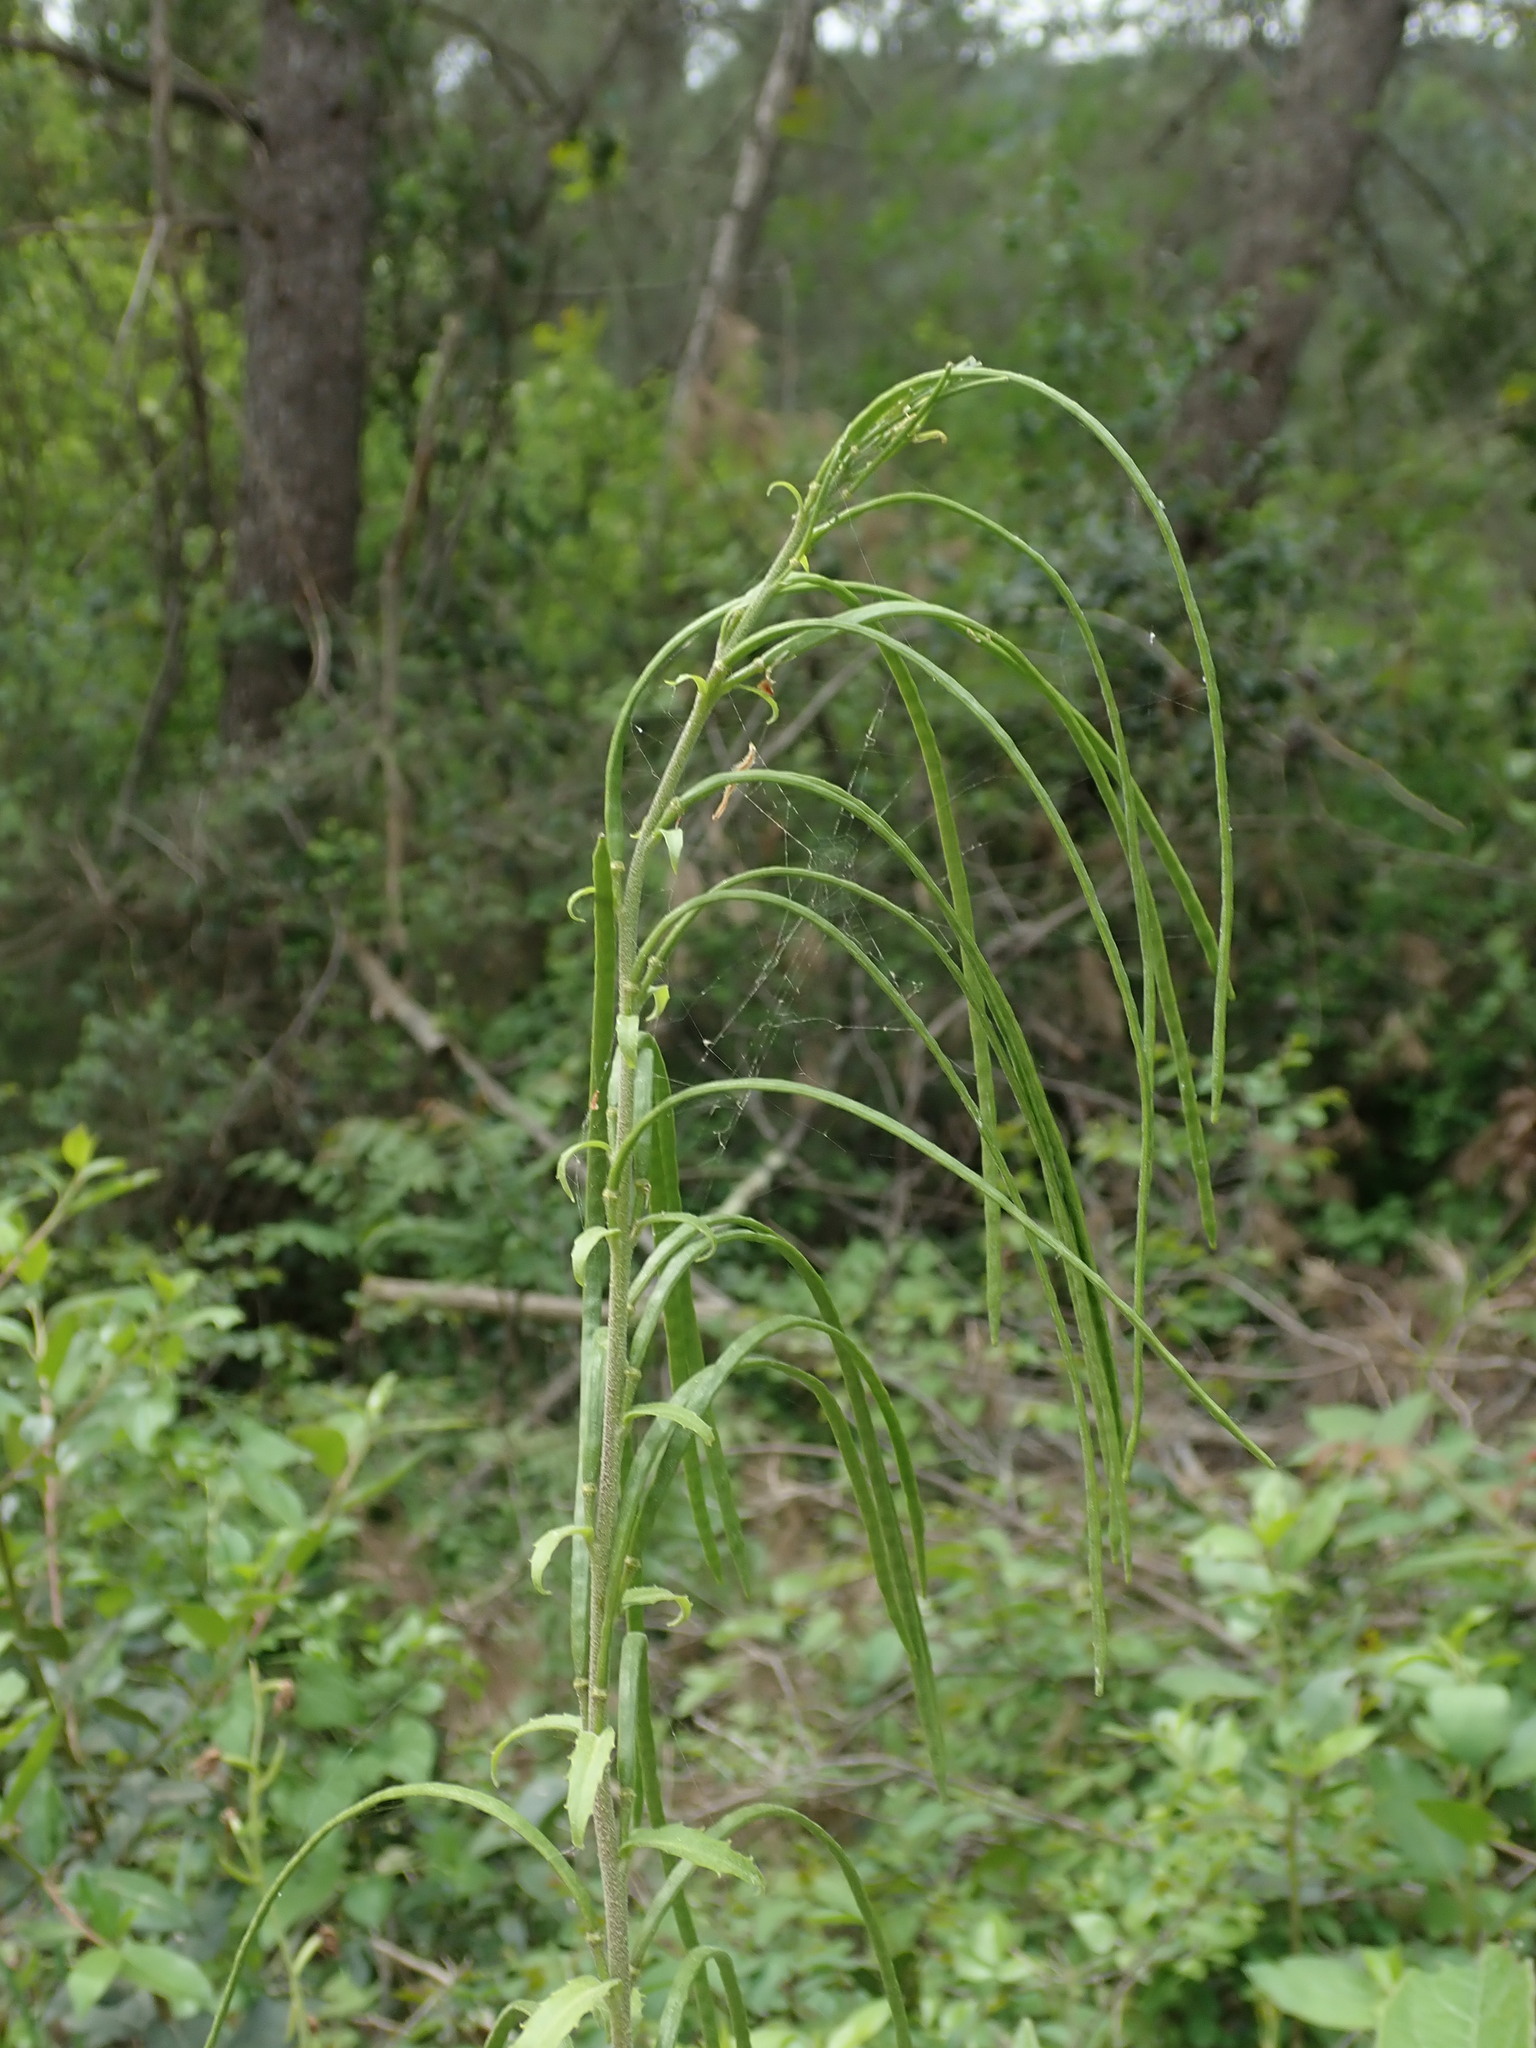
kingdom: Plantae
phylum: Tracheophyta
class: Magnoliopsida
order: Brassicales
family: Brassicaceae
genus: Pseudoturritis
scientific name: Pseudoturritis turrita
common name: Tower cress
